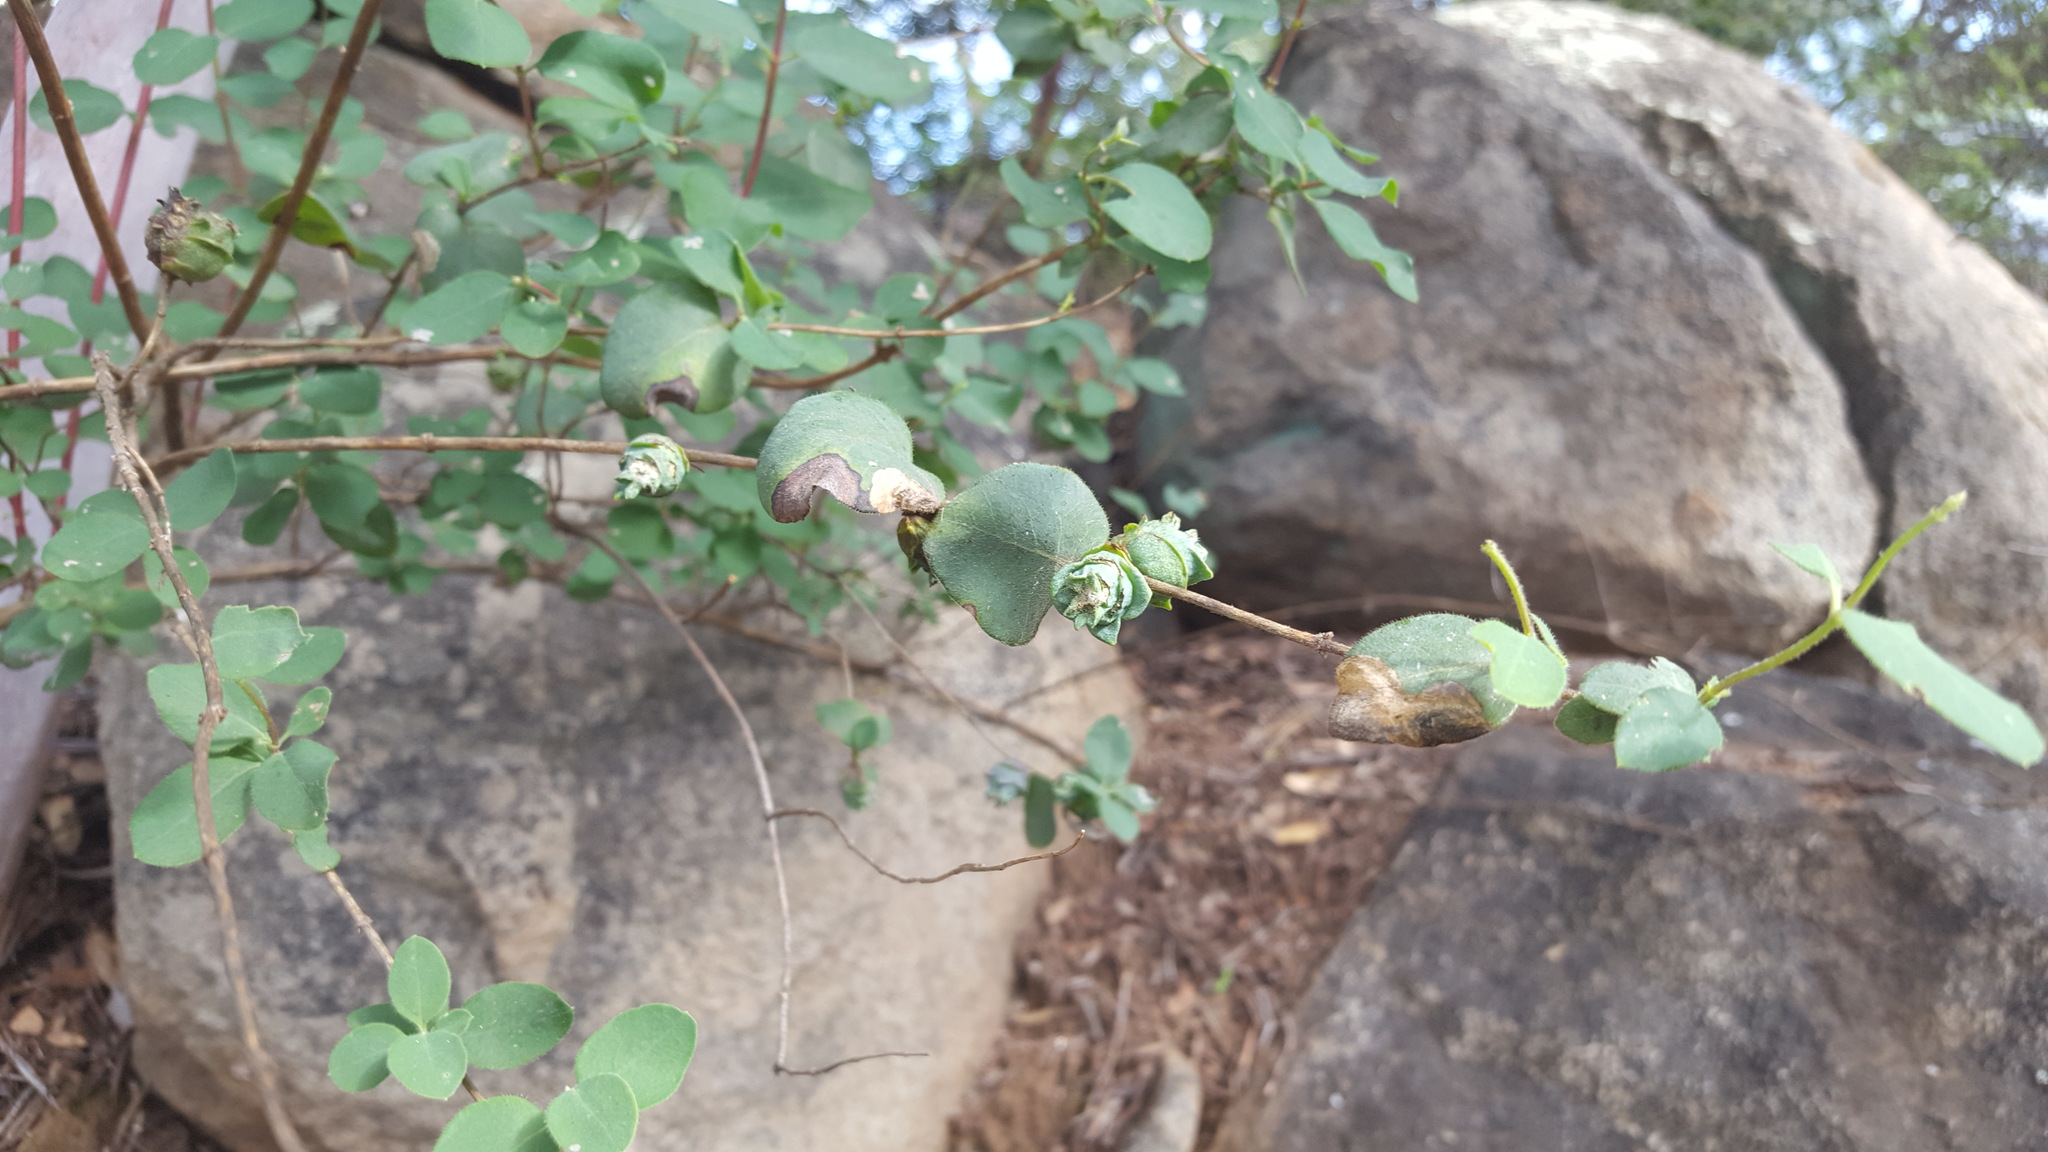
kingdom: Animalia
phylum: Arthropoda
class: Insecta
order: Diptera
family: Cecidomyiidae
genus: Lonicerae
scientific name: Lonicerae
